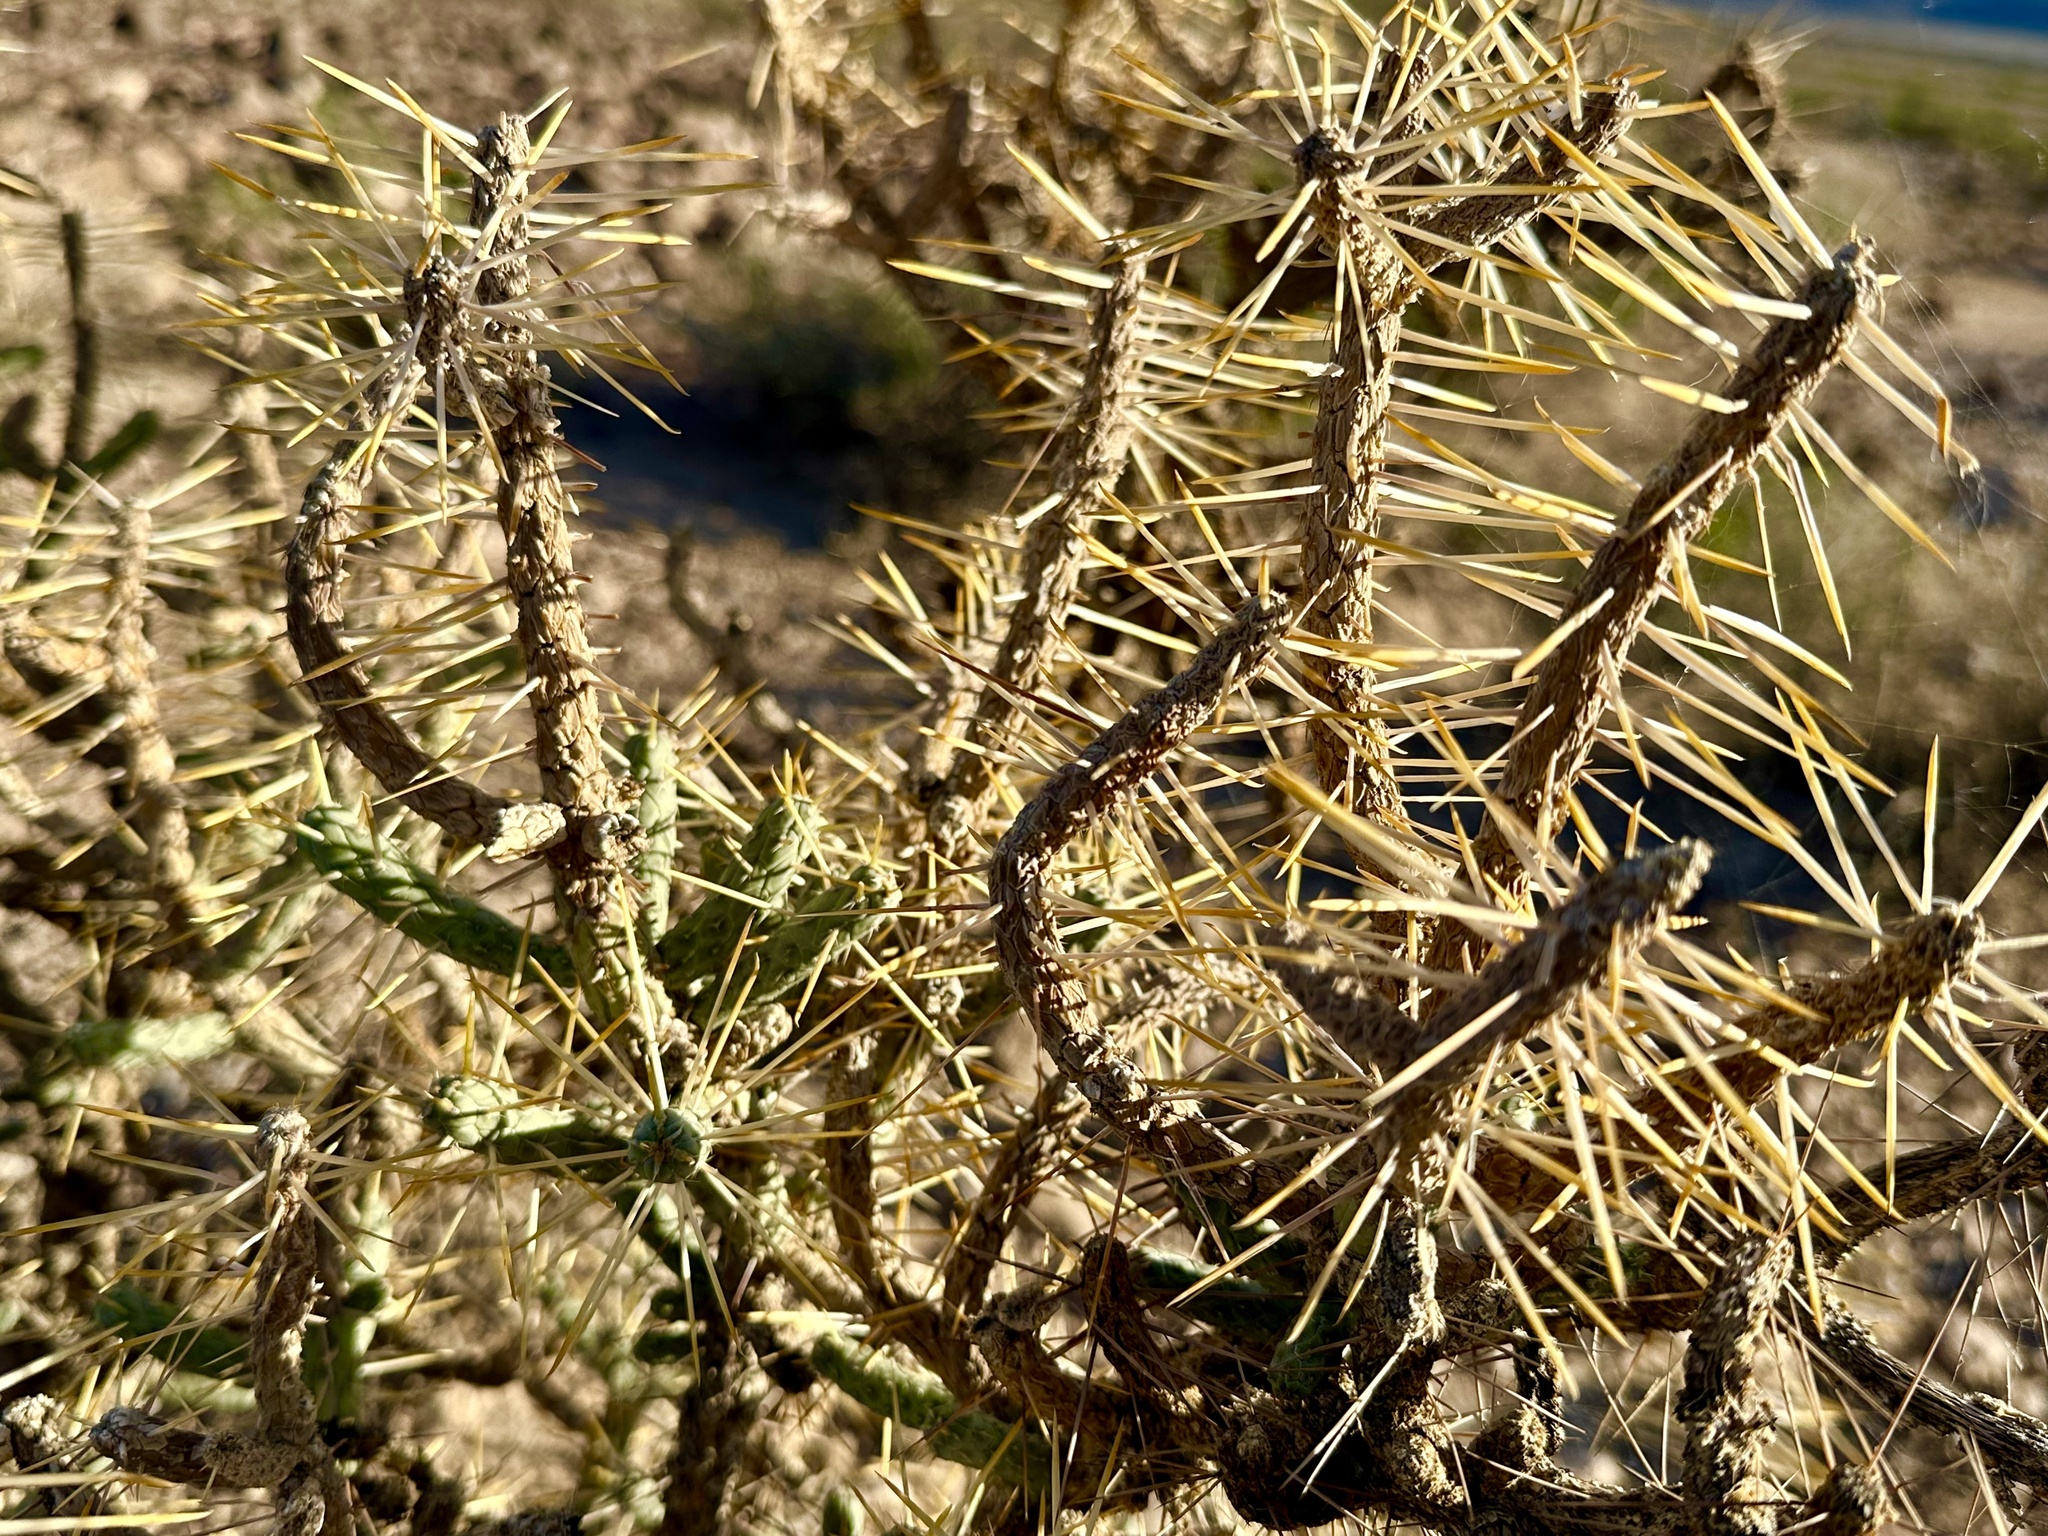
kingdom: Plantae
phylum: Tracheophyta
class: Magnoliopsida
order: Caryophyllales
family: Cactaceae
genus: Cylindropuntia
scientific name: Cylindropuntia ramosissima
